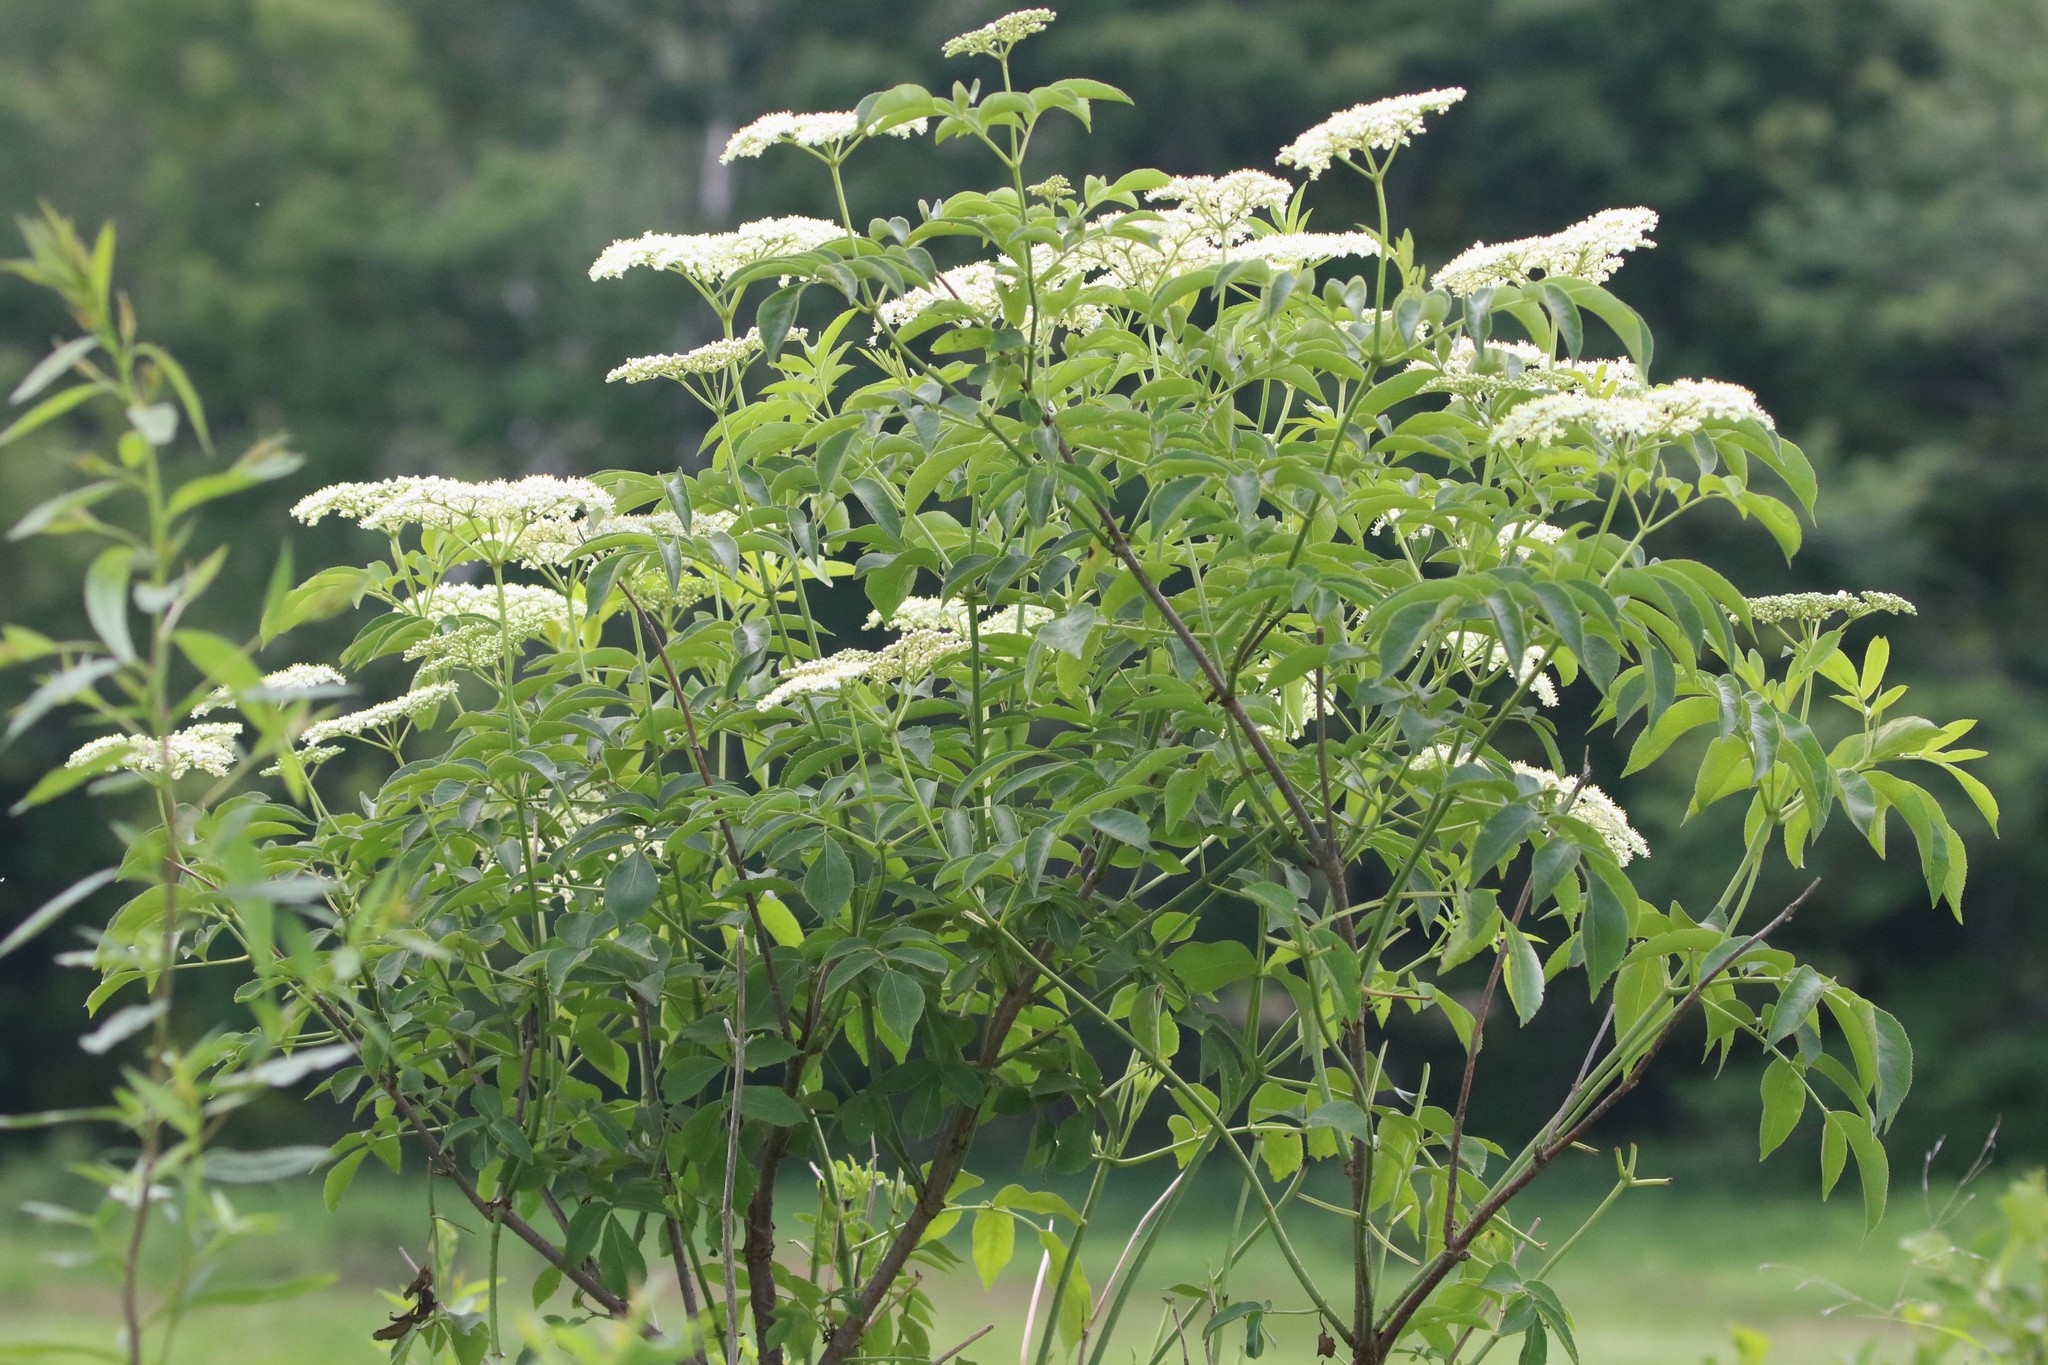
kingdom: Plantae
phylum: Tracheophyta
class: Magnoliopsida
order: Dipsacales
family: Viburnaceae
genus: Sambucus
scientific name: Sambucus canadensis
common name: American elder
